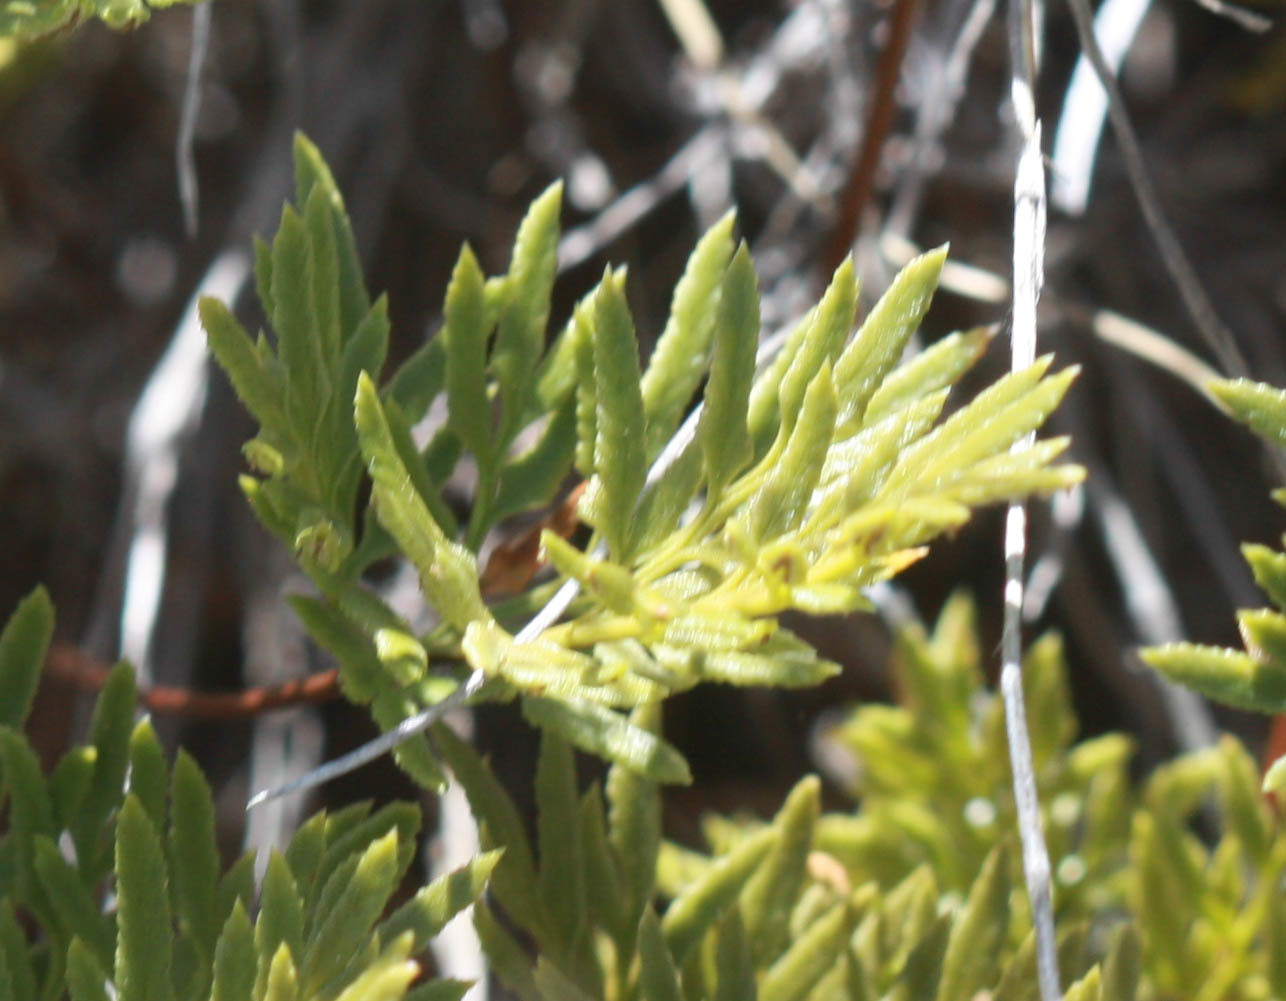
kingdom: Plantae
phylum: Tracheophyta
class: Polypodiopsida
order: Polypodiales
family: Pteridaceae
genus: Aspidotis
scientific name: Aspidotis densa
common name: Indian's dream
